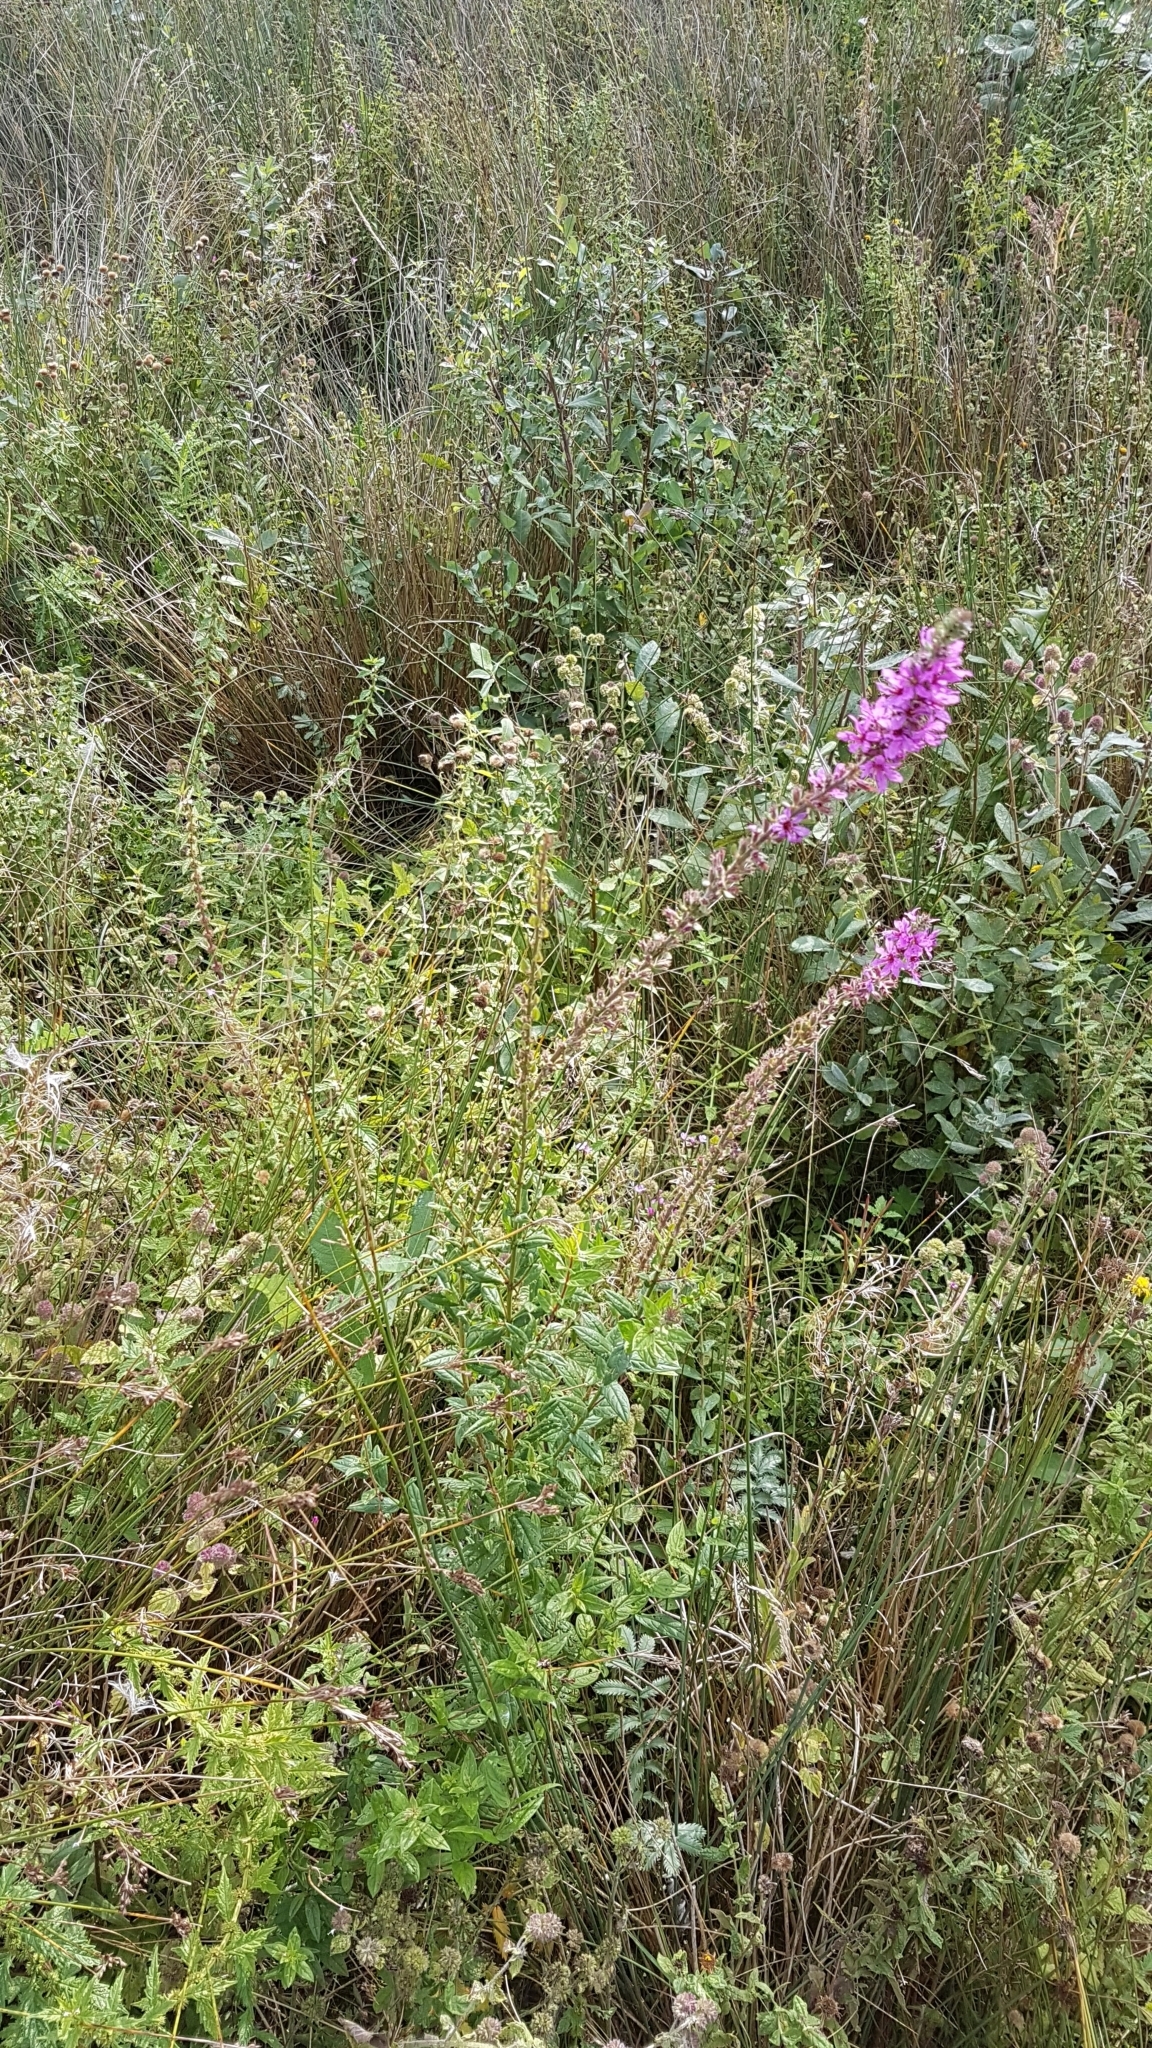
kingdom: Plantae
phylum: Tracheophyta
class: Magnoliopsida
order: Myrtales
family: Lythraceae
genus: Lythrum
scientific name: Lythrum salicaria
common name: Purple loosestrife
